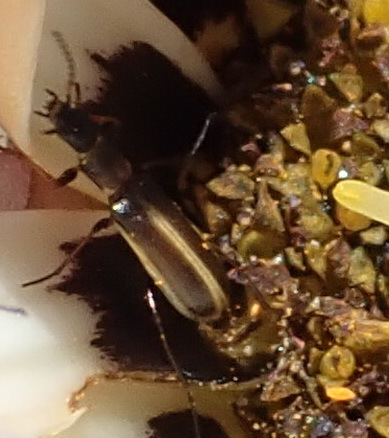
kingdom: Animalia
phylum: Arthropoda
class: Insecta
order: Coleoptera
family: Melyridae
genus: Pagurodactylus
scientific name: Pagurodactylus
